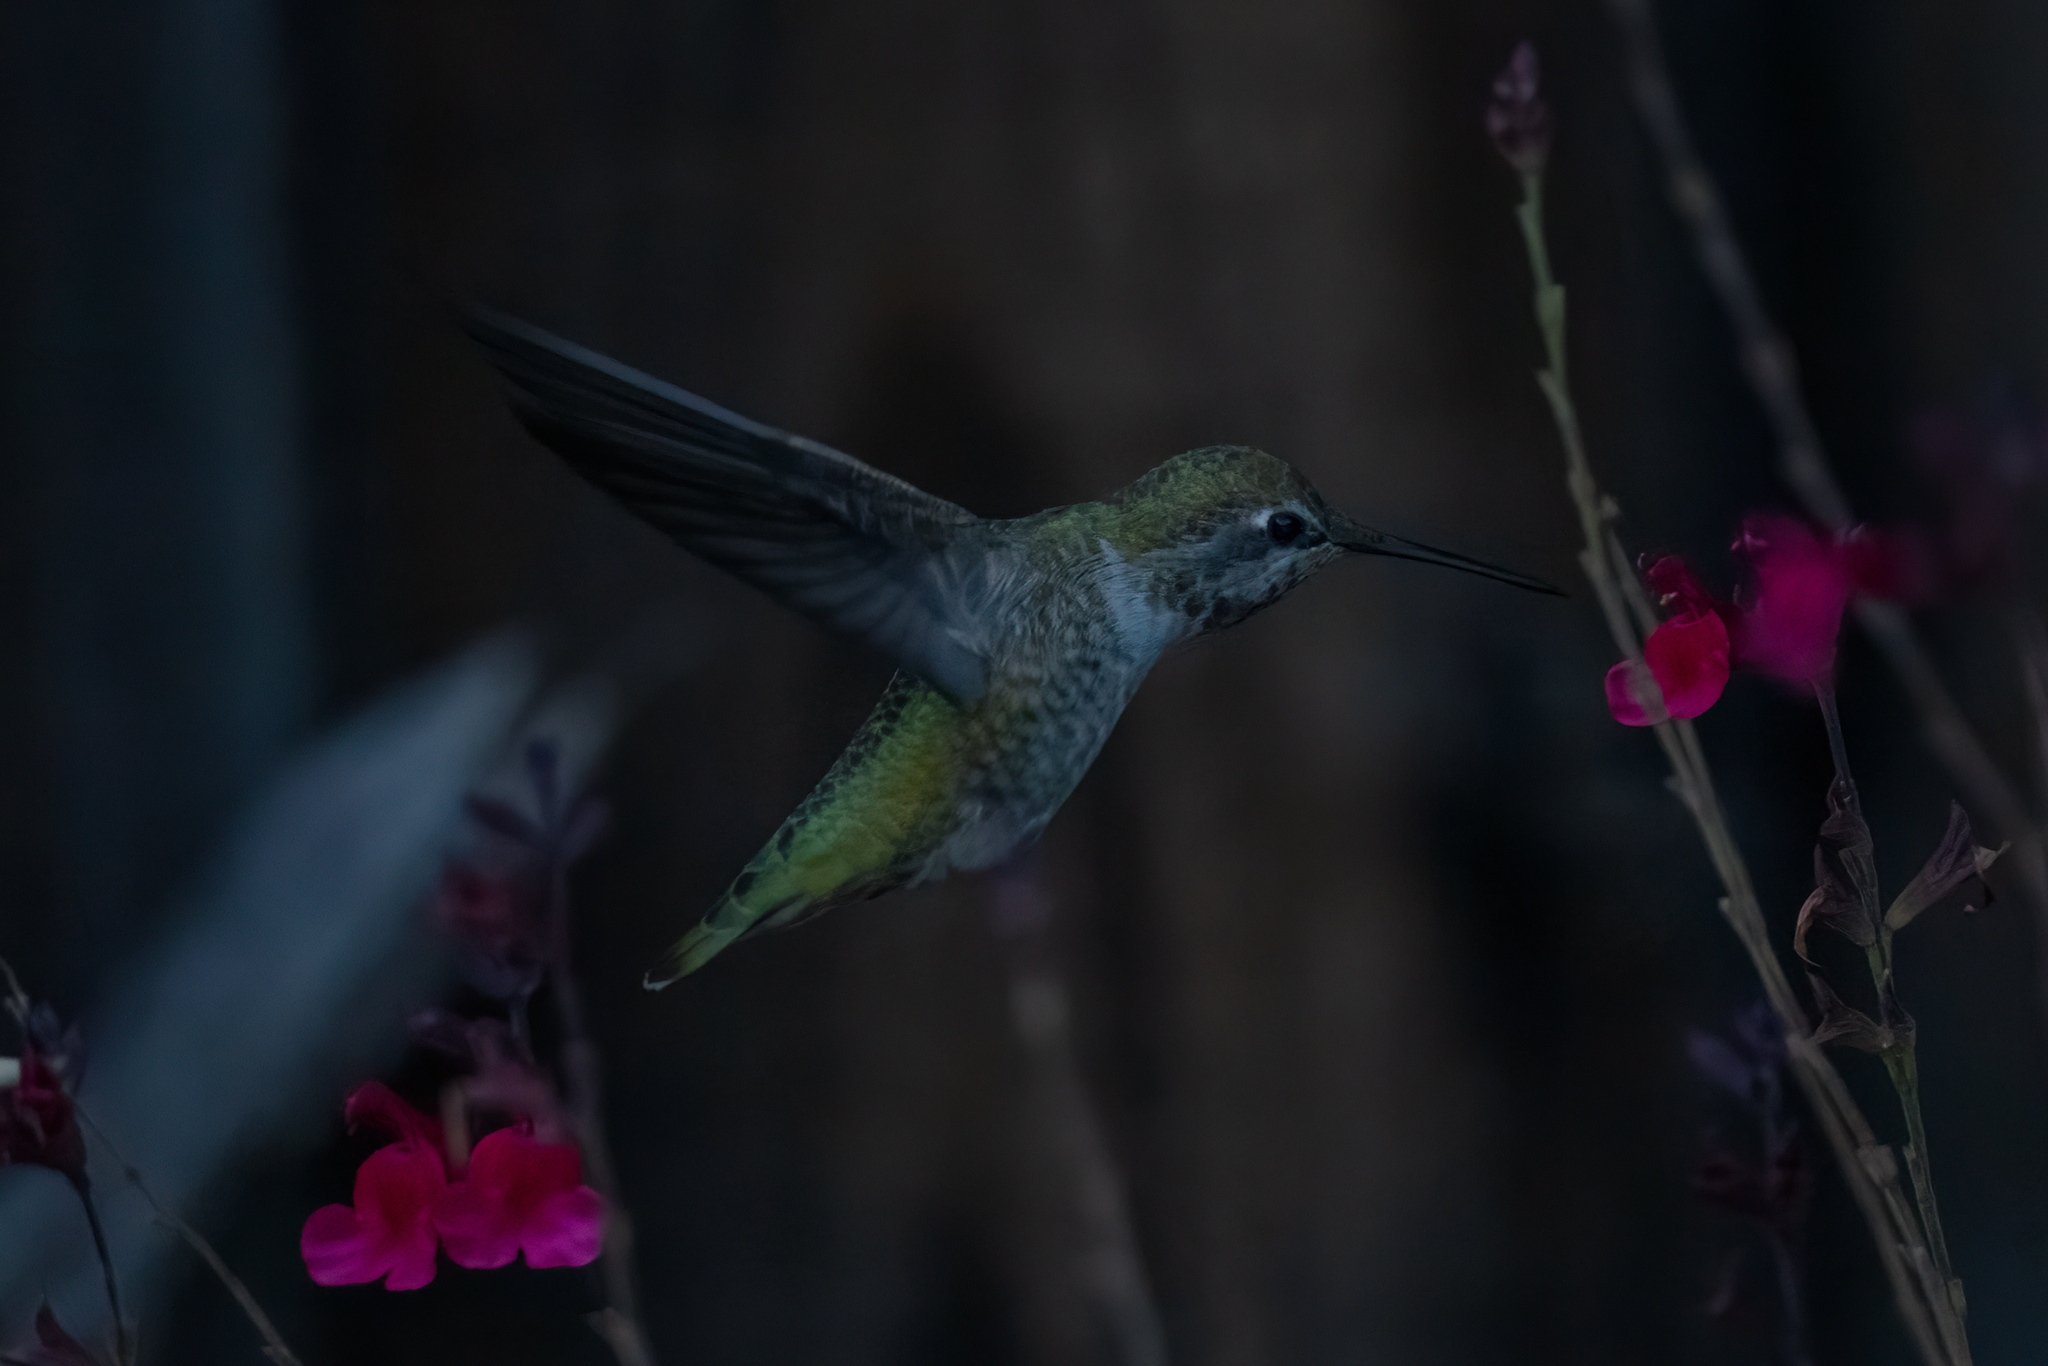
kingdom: Animalia
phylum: Chordata
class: Aves
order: Apodiformes
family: Trochilidae
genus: Calypte
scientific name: Calypte anna
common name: Anna's hummingbird
